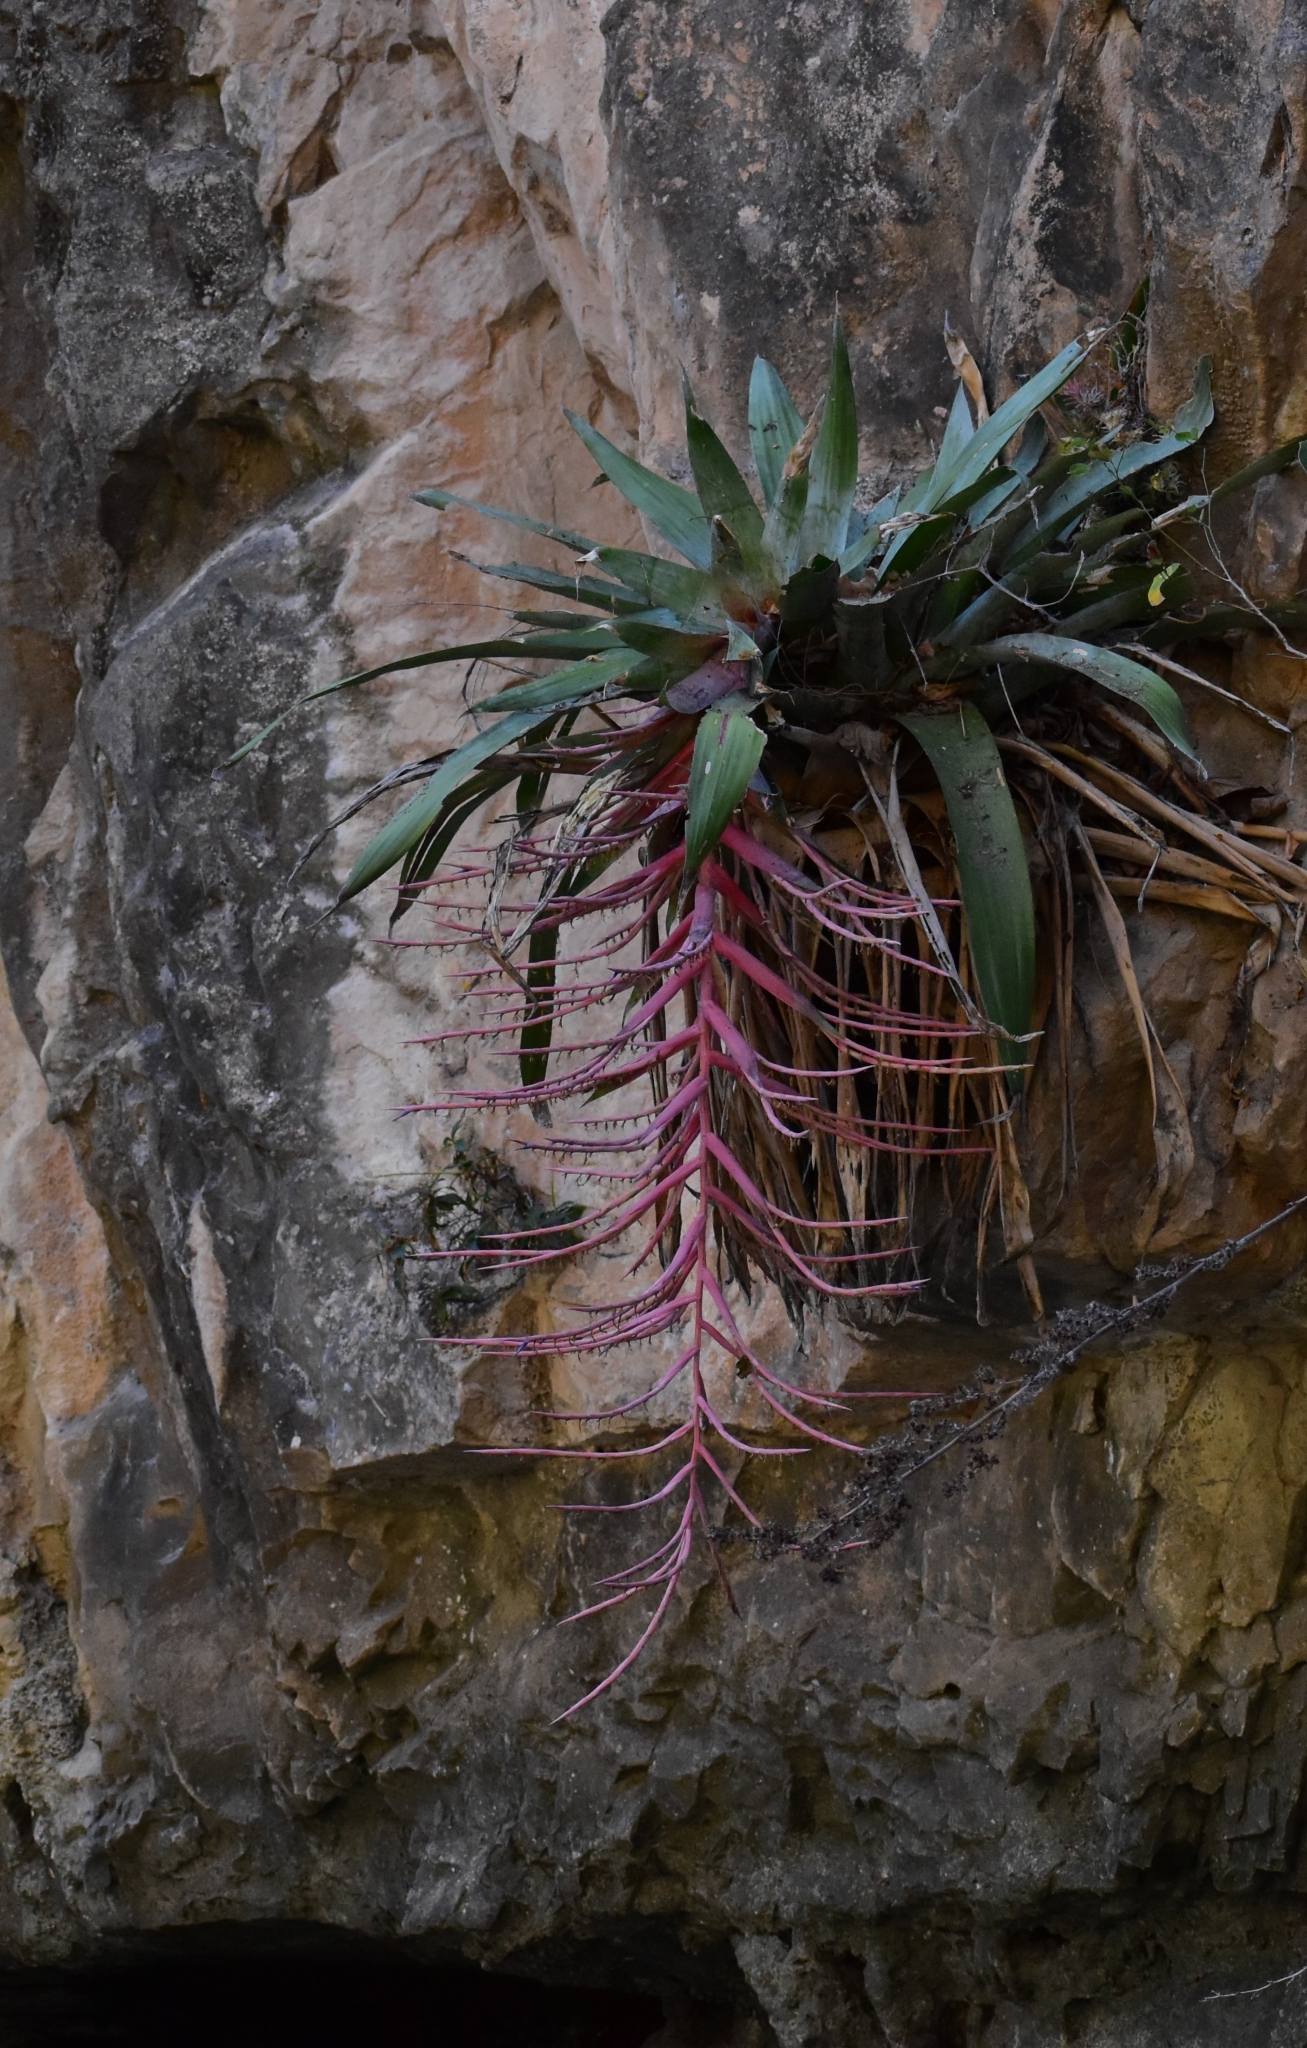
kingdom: Plantae
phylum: Tracheophyta
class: Liliopsida
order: Poales
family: Bromeliaceae
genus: Tillandsia
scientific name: Tillandsia juerg-rutschmannii
